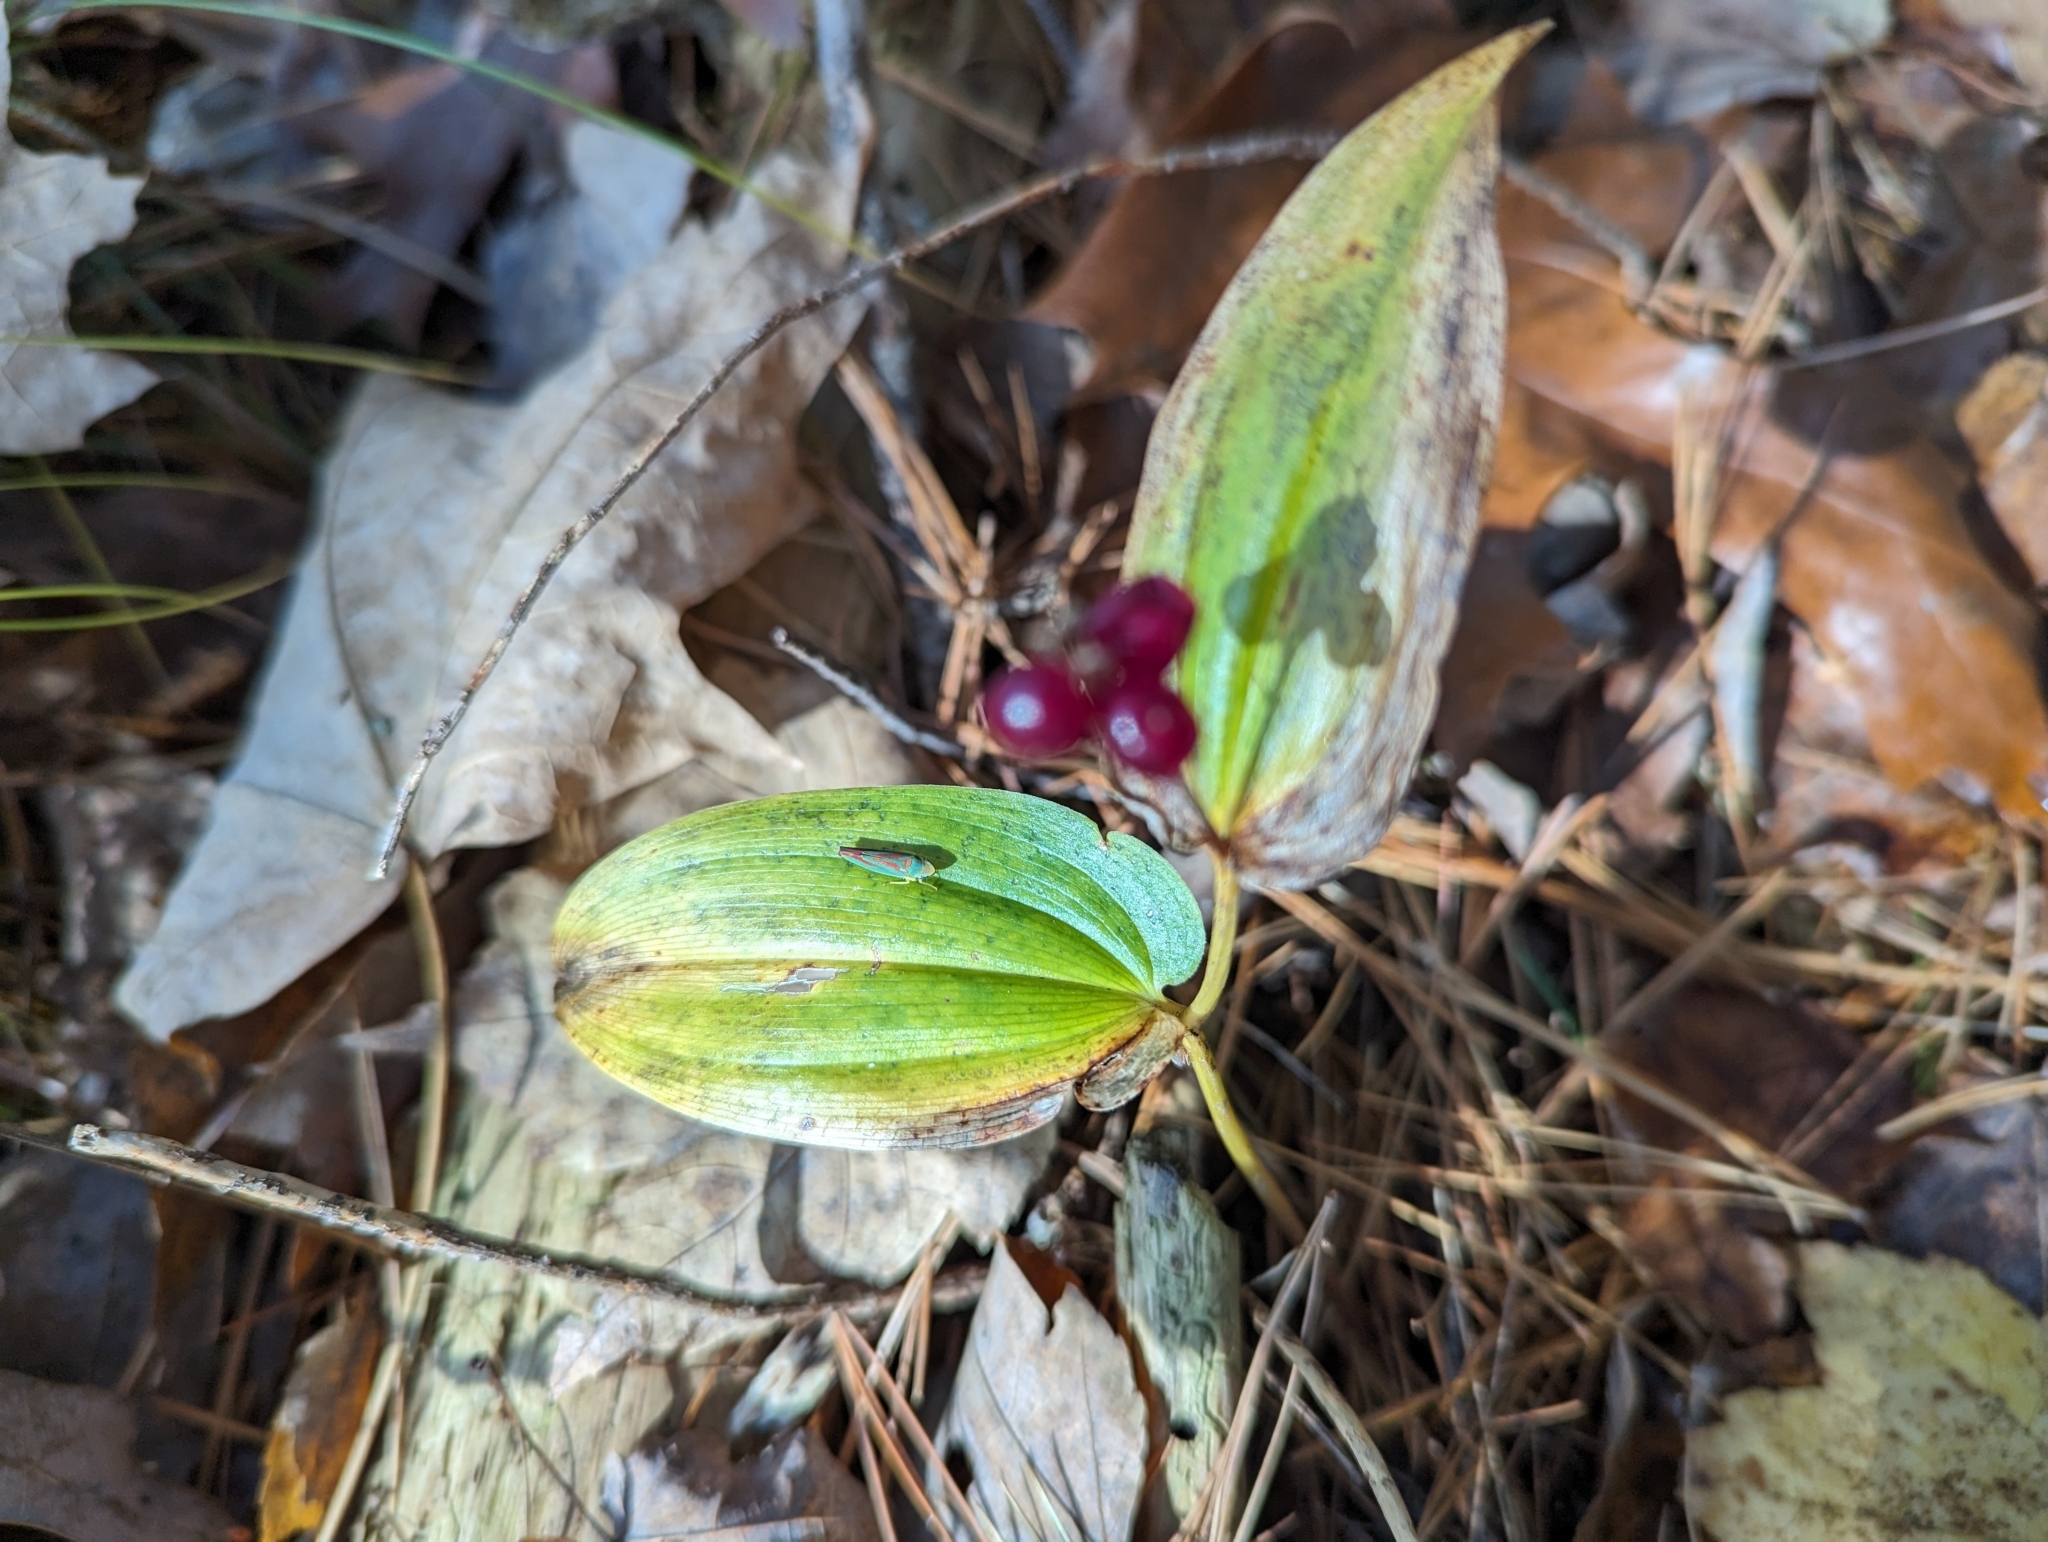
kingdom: Plantae
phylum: Tracheophyta
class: Liliopsida
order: Asparagales
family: Asparagaceae
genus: Maianthemum
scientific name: Maianthemum canadense
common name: False lily-of-the-valley
